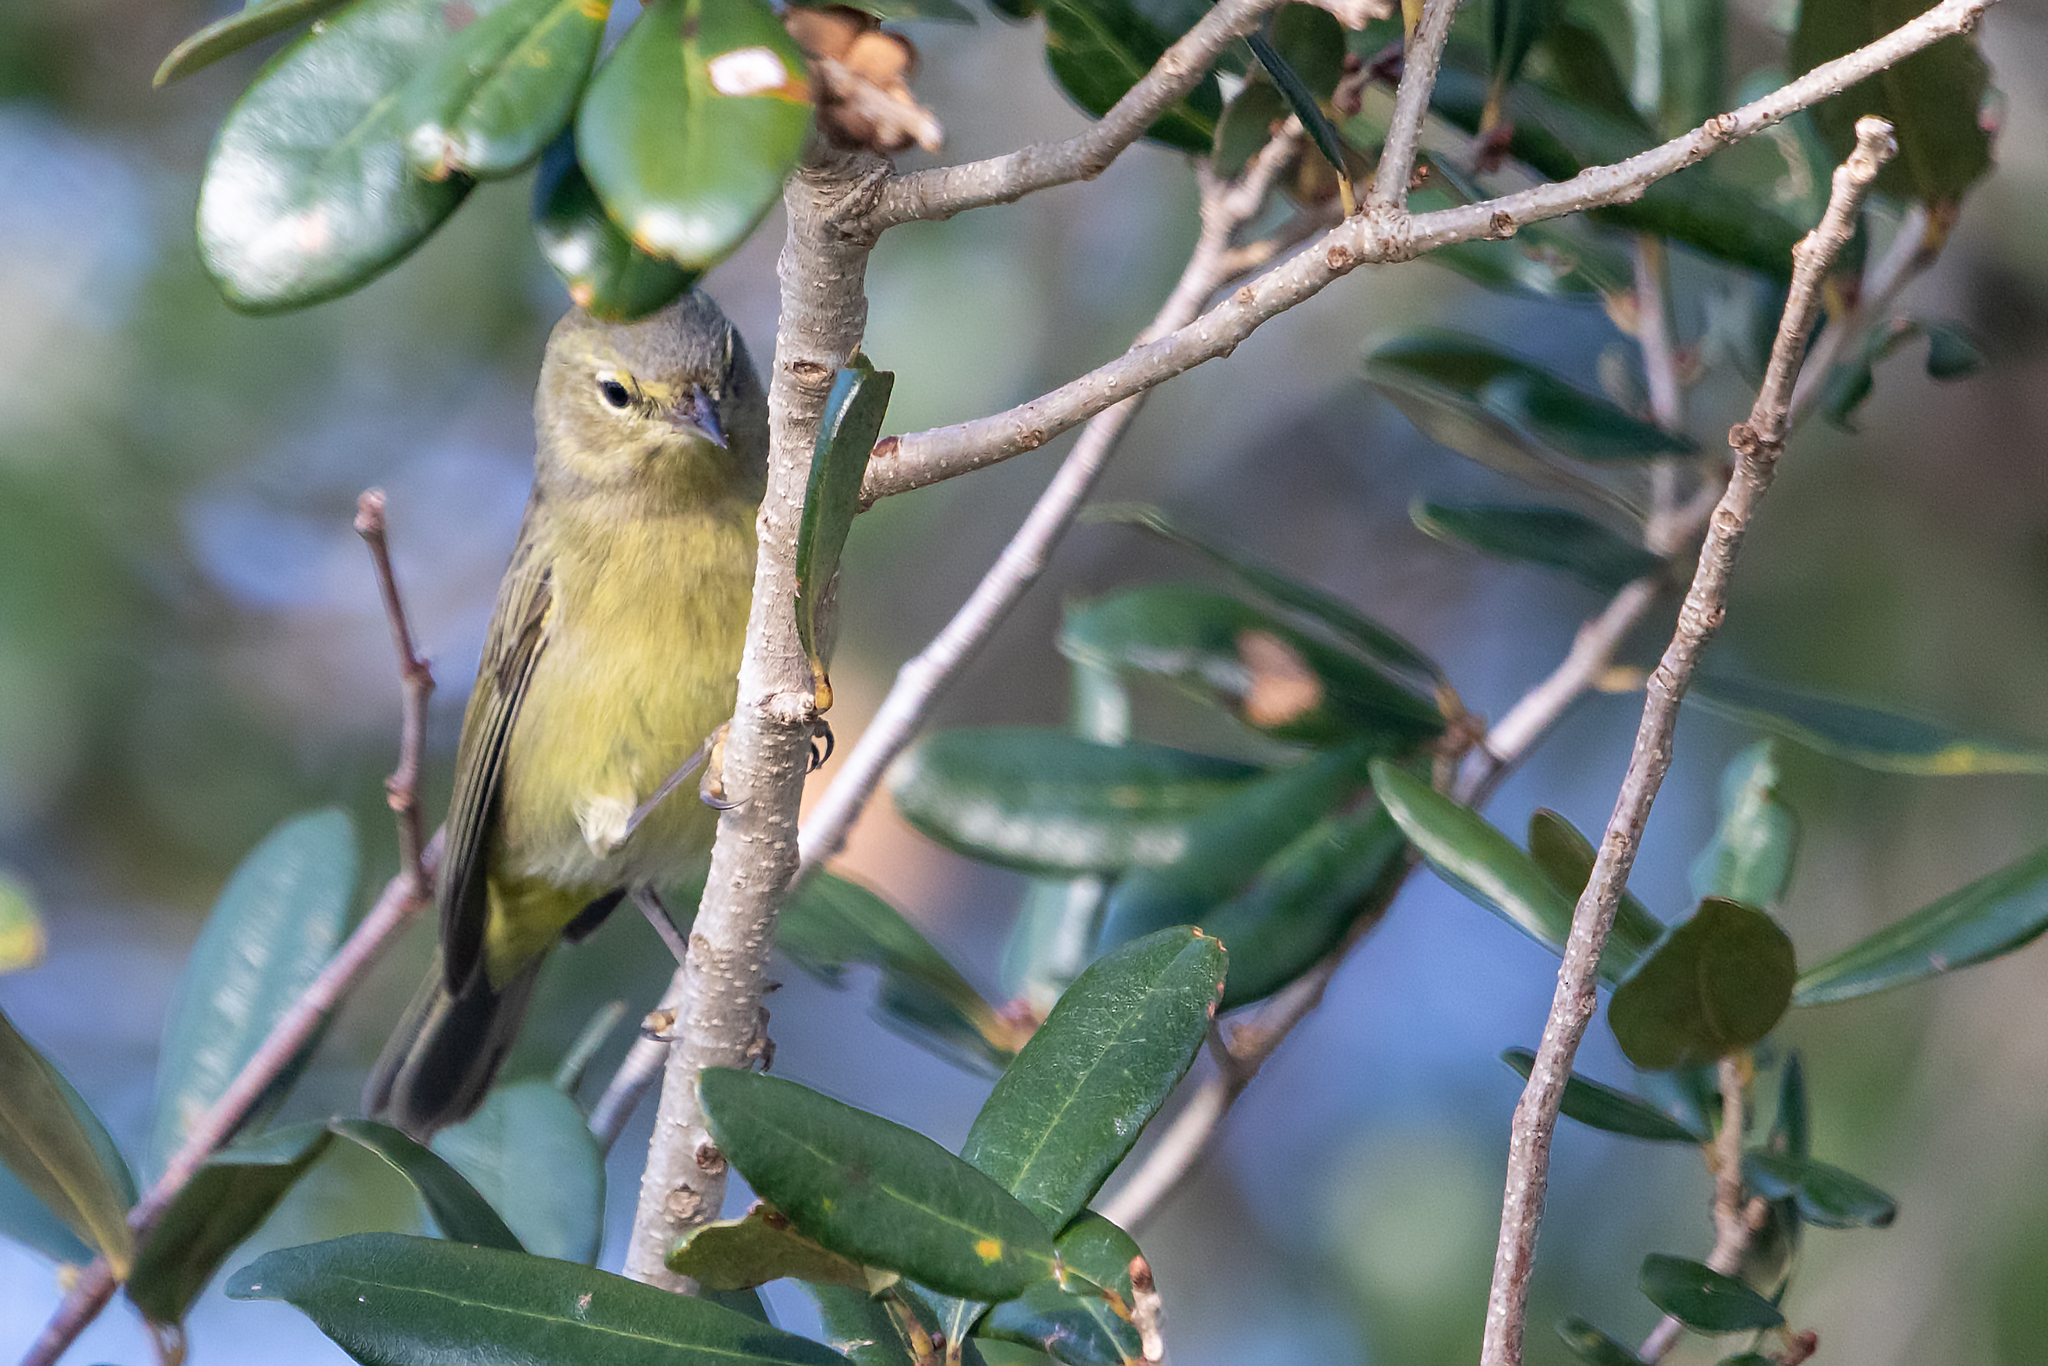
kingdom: Animalia
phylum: Chordata
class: Aves
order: Passeriformes
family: Parulidae
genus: Leiothlypis
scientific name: Leiothlypis celata
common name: Orange-crowned warbler
